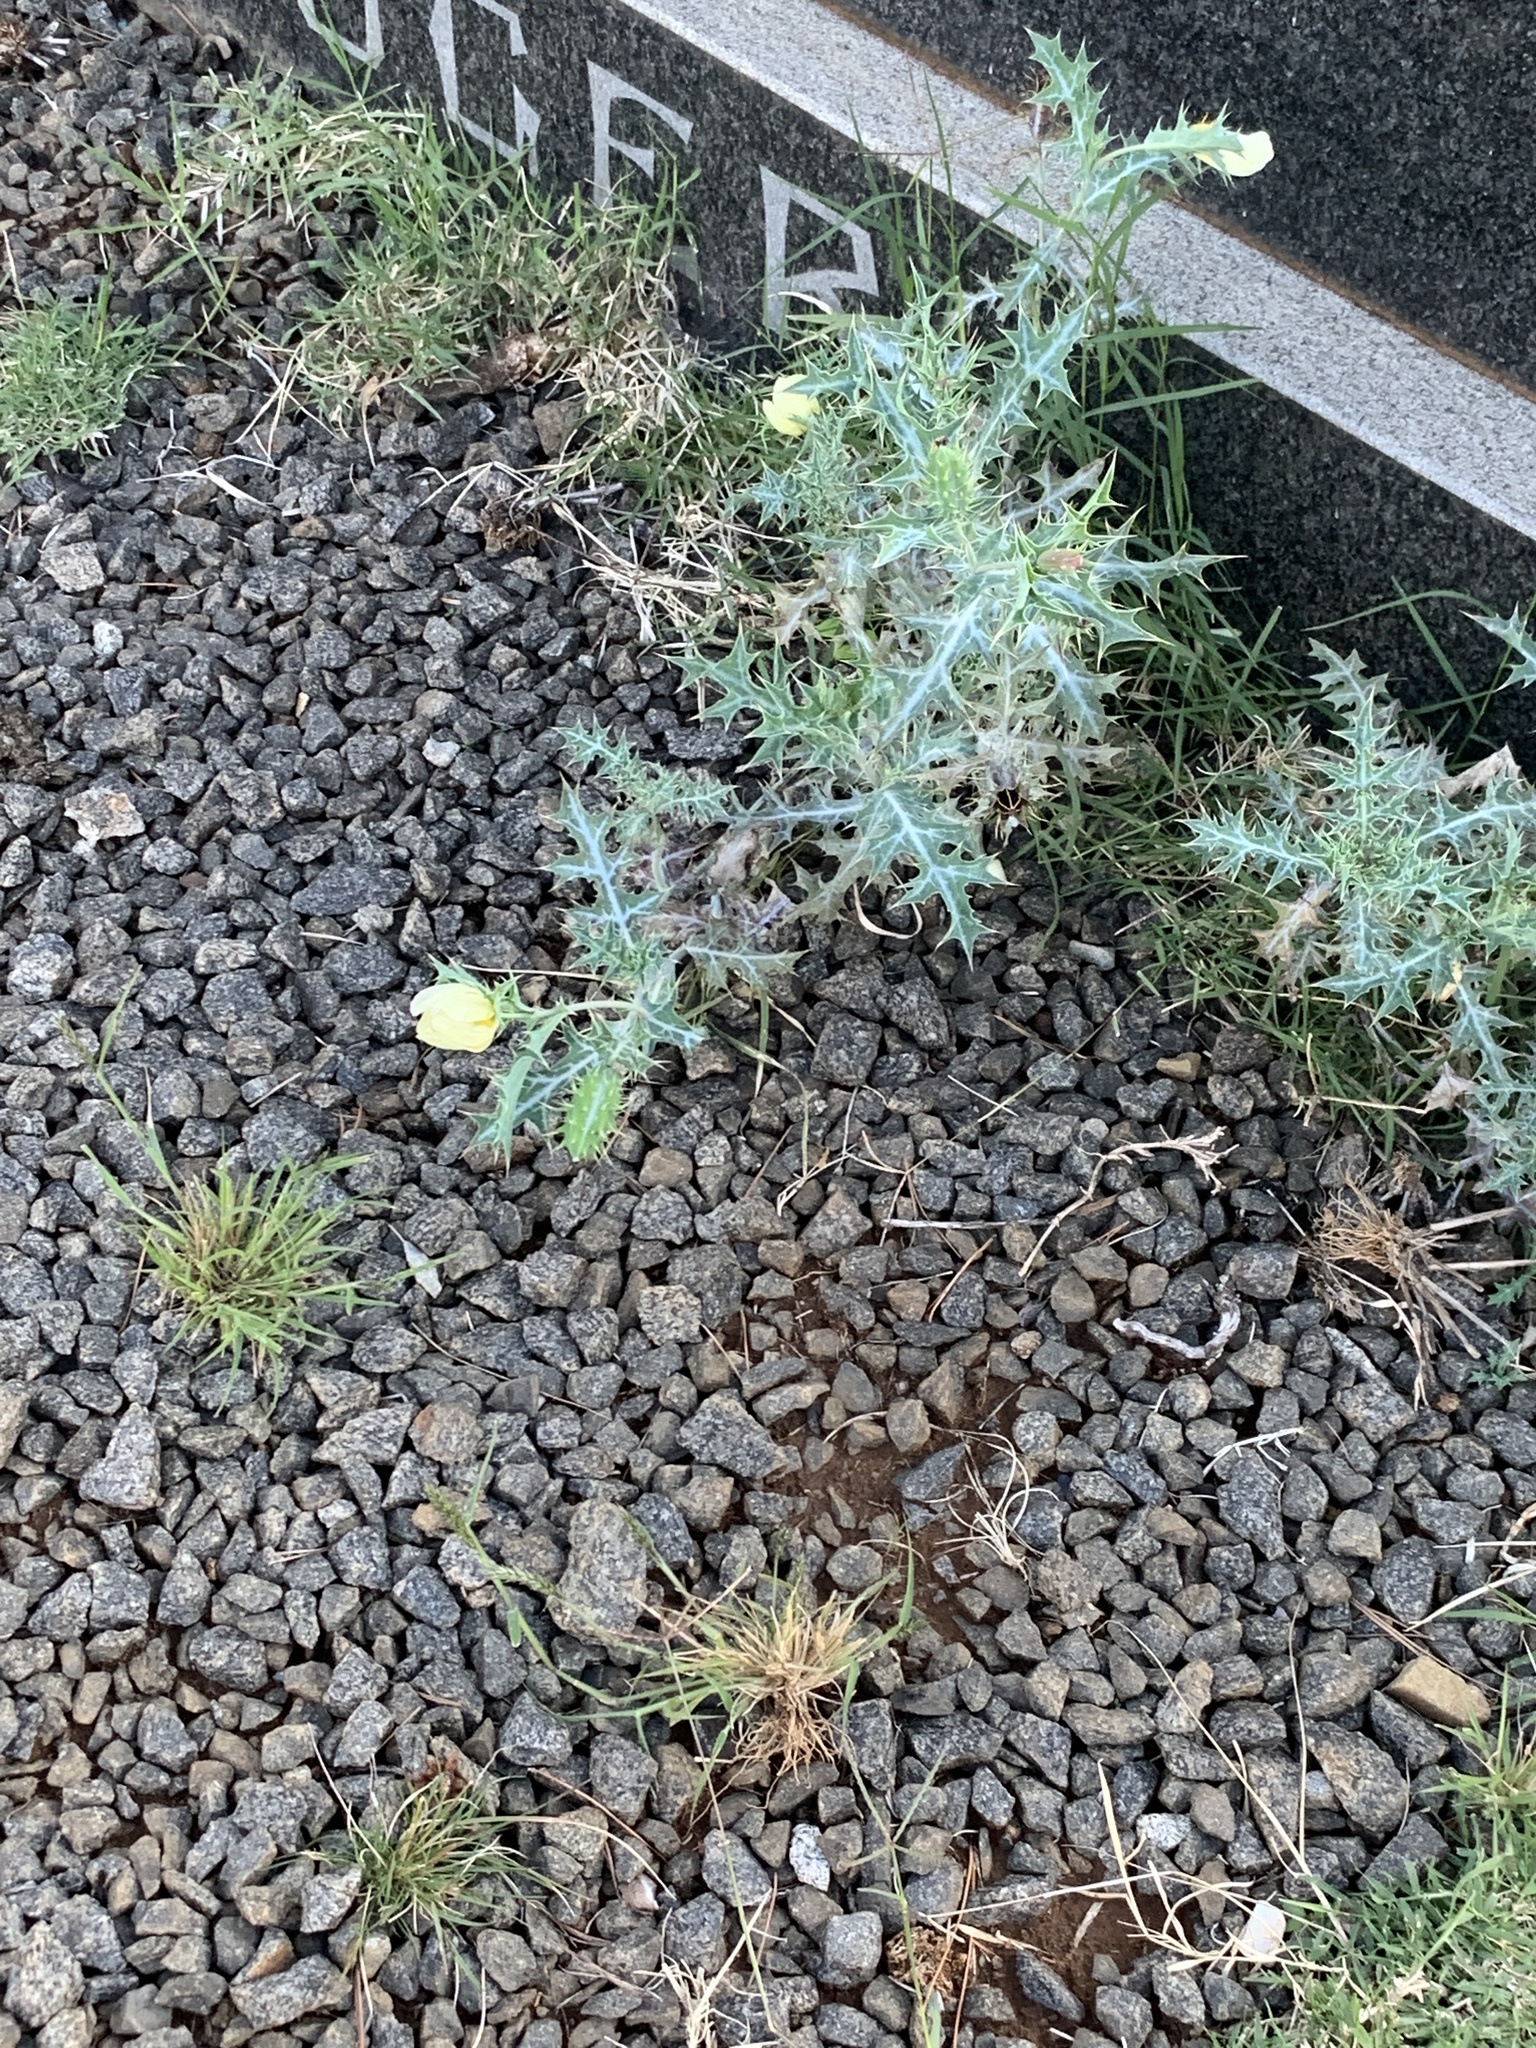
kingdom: Plantae
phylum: Tracheophyta
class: Magnoliopsida
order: Ranunculales
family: Papaveraceae
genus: Argemone
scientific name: Argemone ochroleuca
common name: White-flower mexican-poppy
